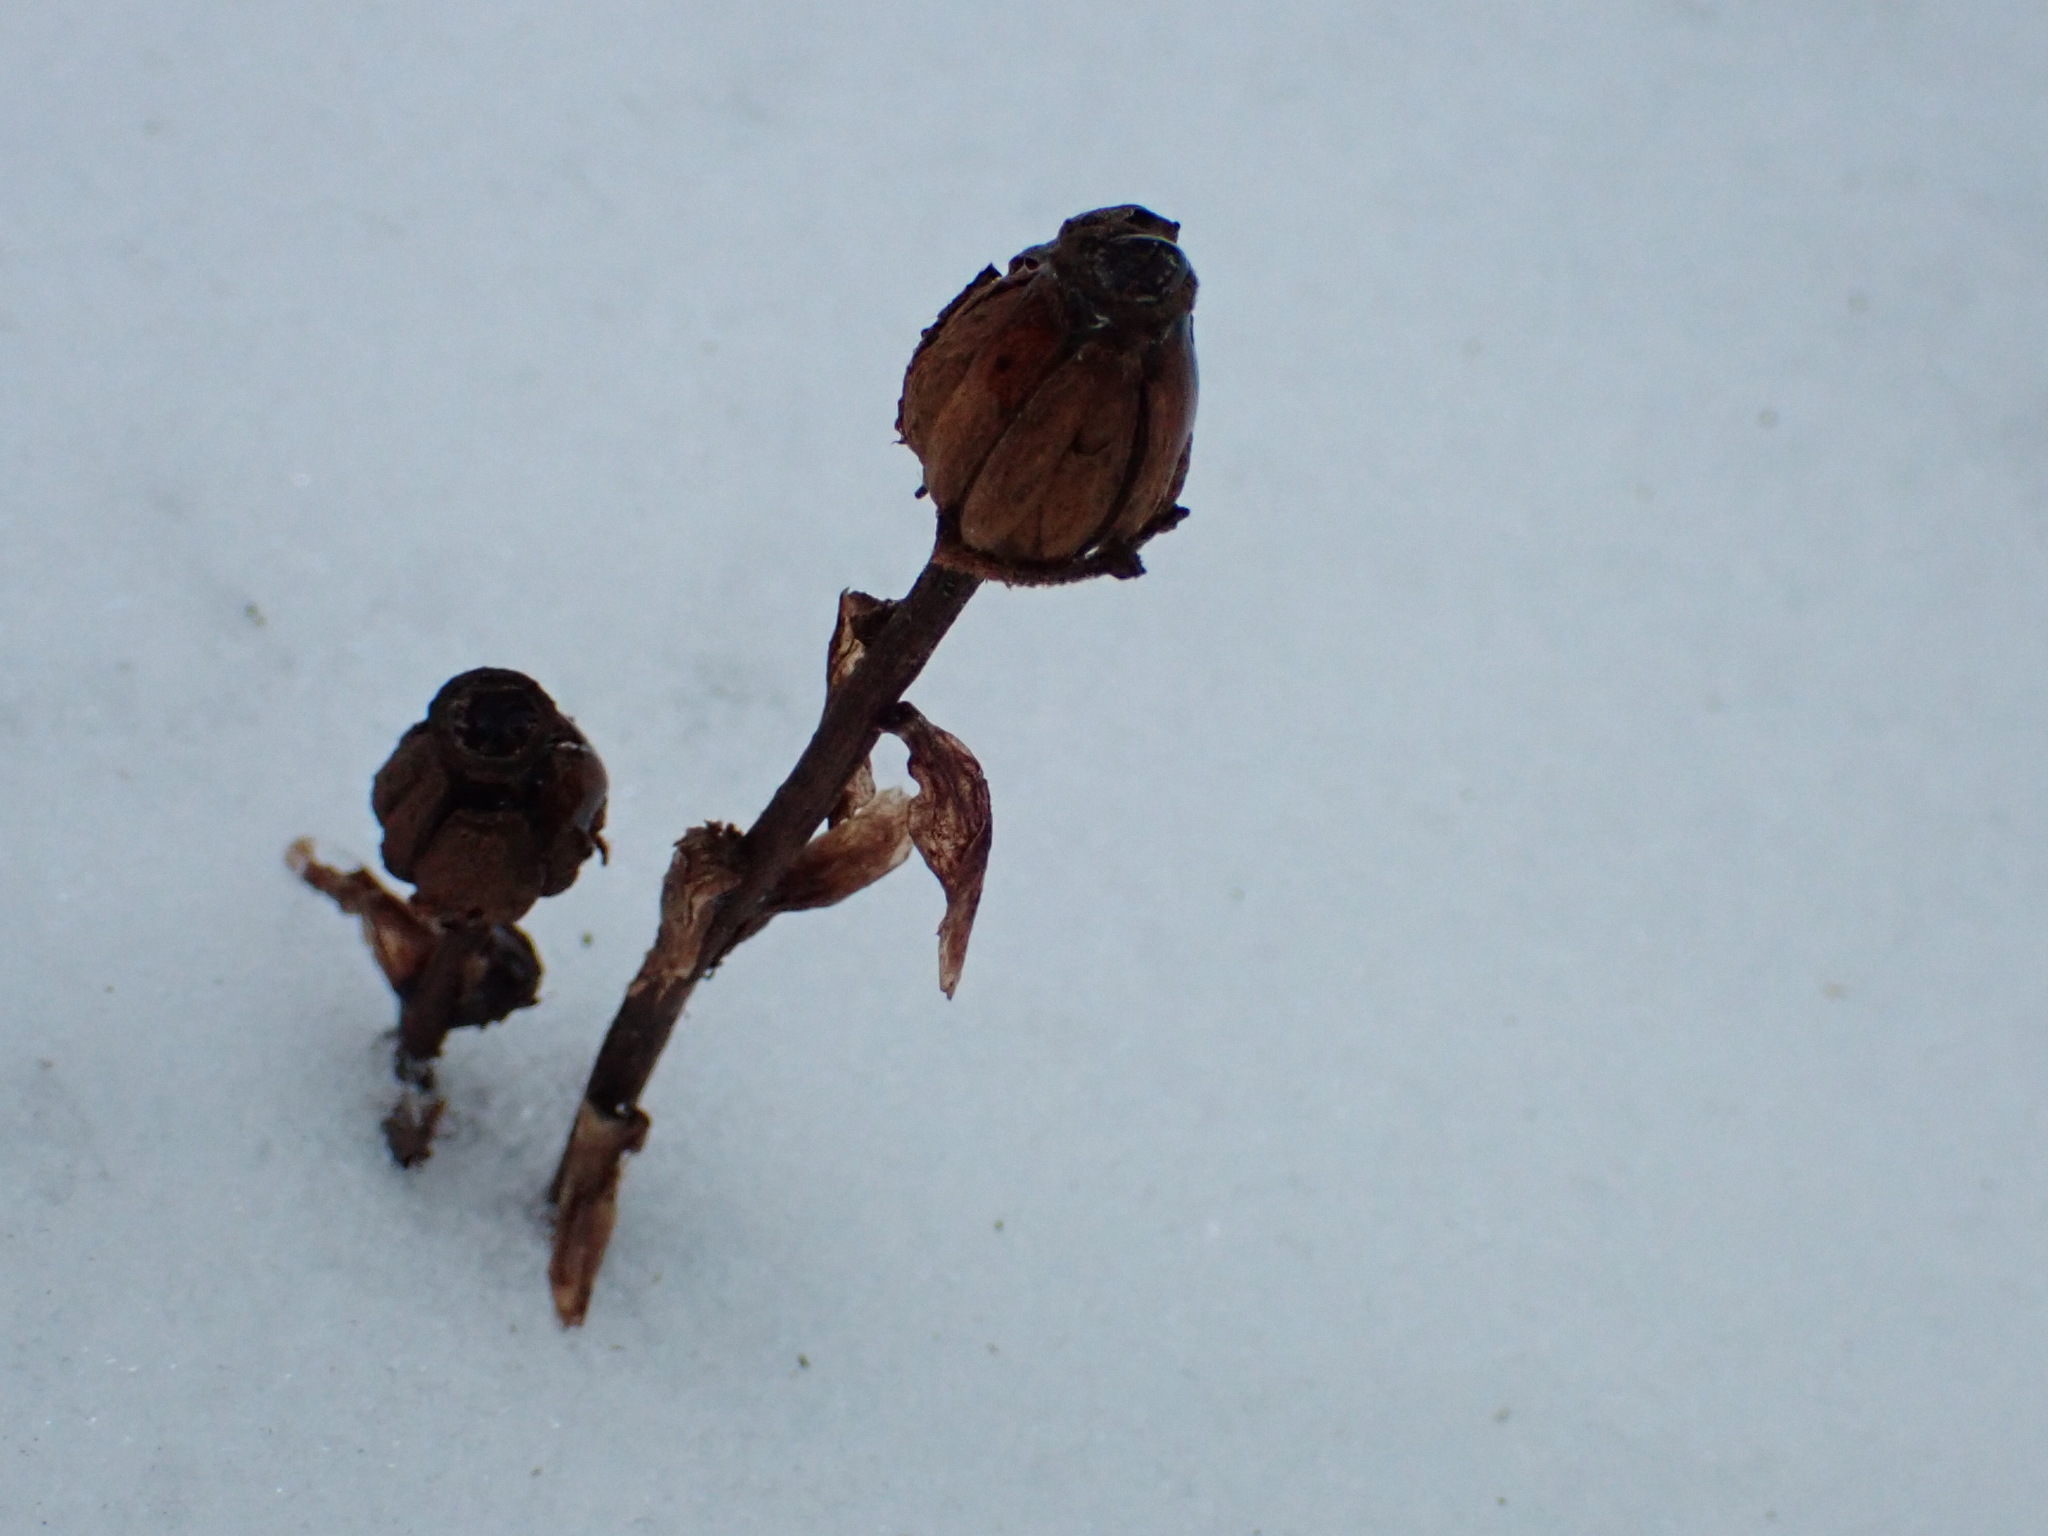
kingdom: Plantae
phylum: Tracheophyta
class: Magnoliopsida
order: Ericales
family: Ericaceae
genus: Monotropa
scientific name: Monotropa uniflora
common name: Convulsion root
